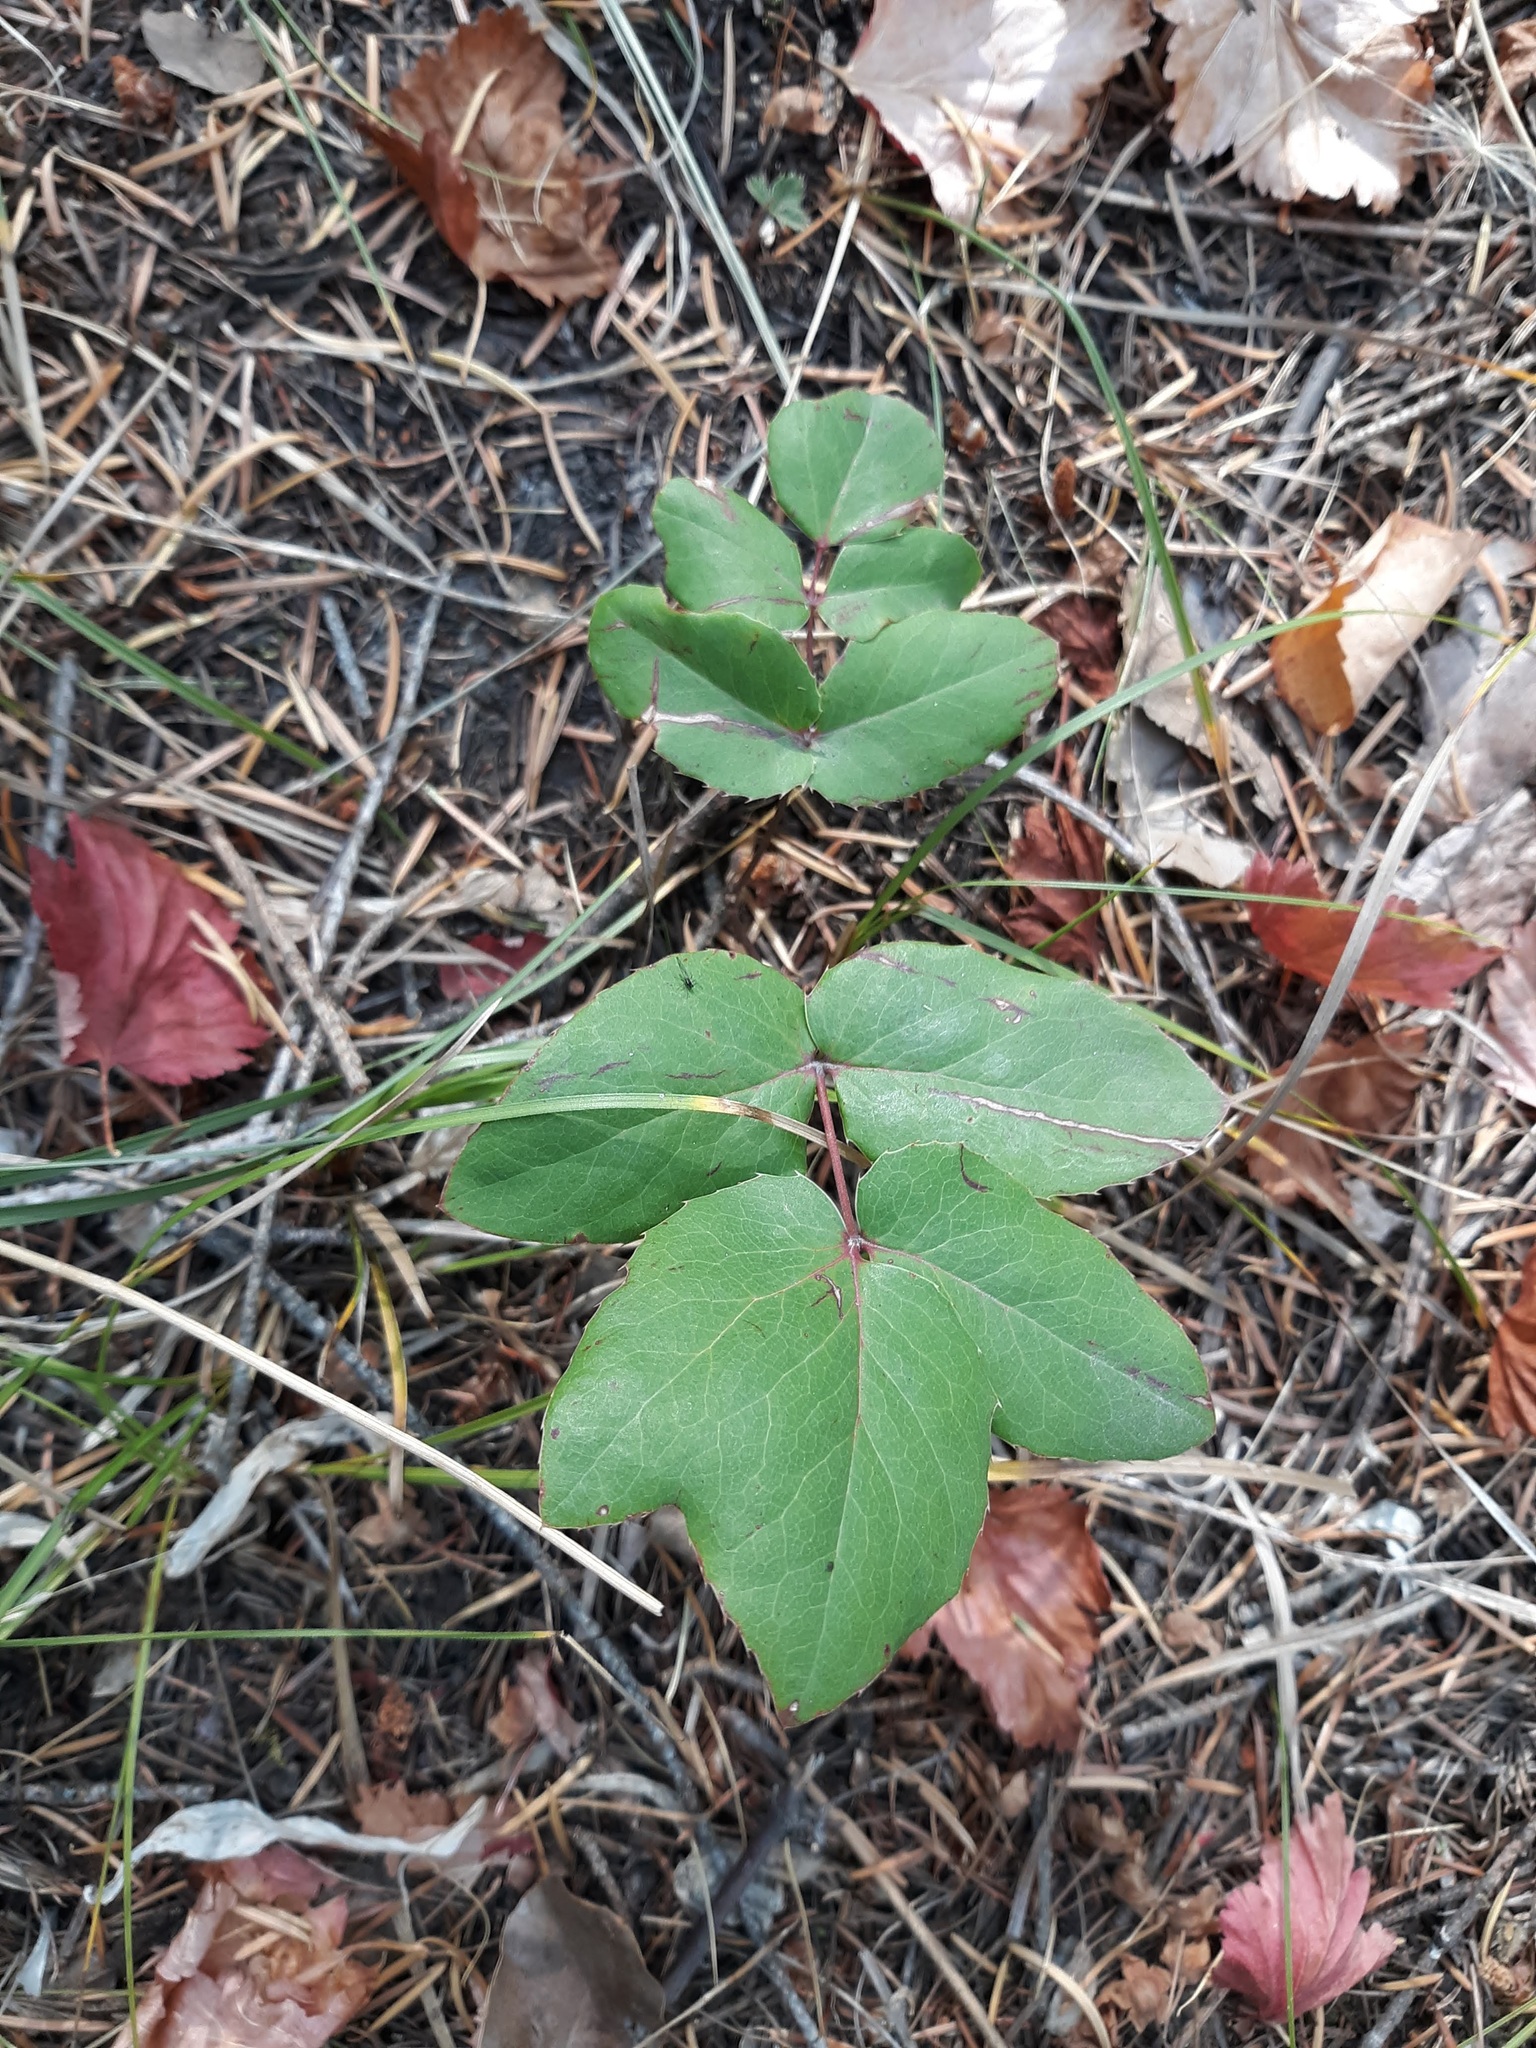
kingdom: Plantae
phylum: Tracheophyta
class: Magnoliopsida
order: Ranunculales
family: Berberidaceae
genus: Mahonia
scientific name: Mahonia repens
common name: Creeping oregon-grape
